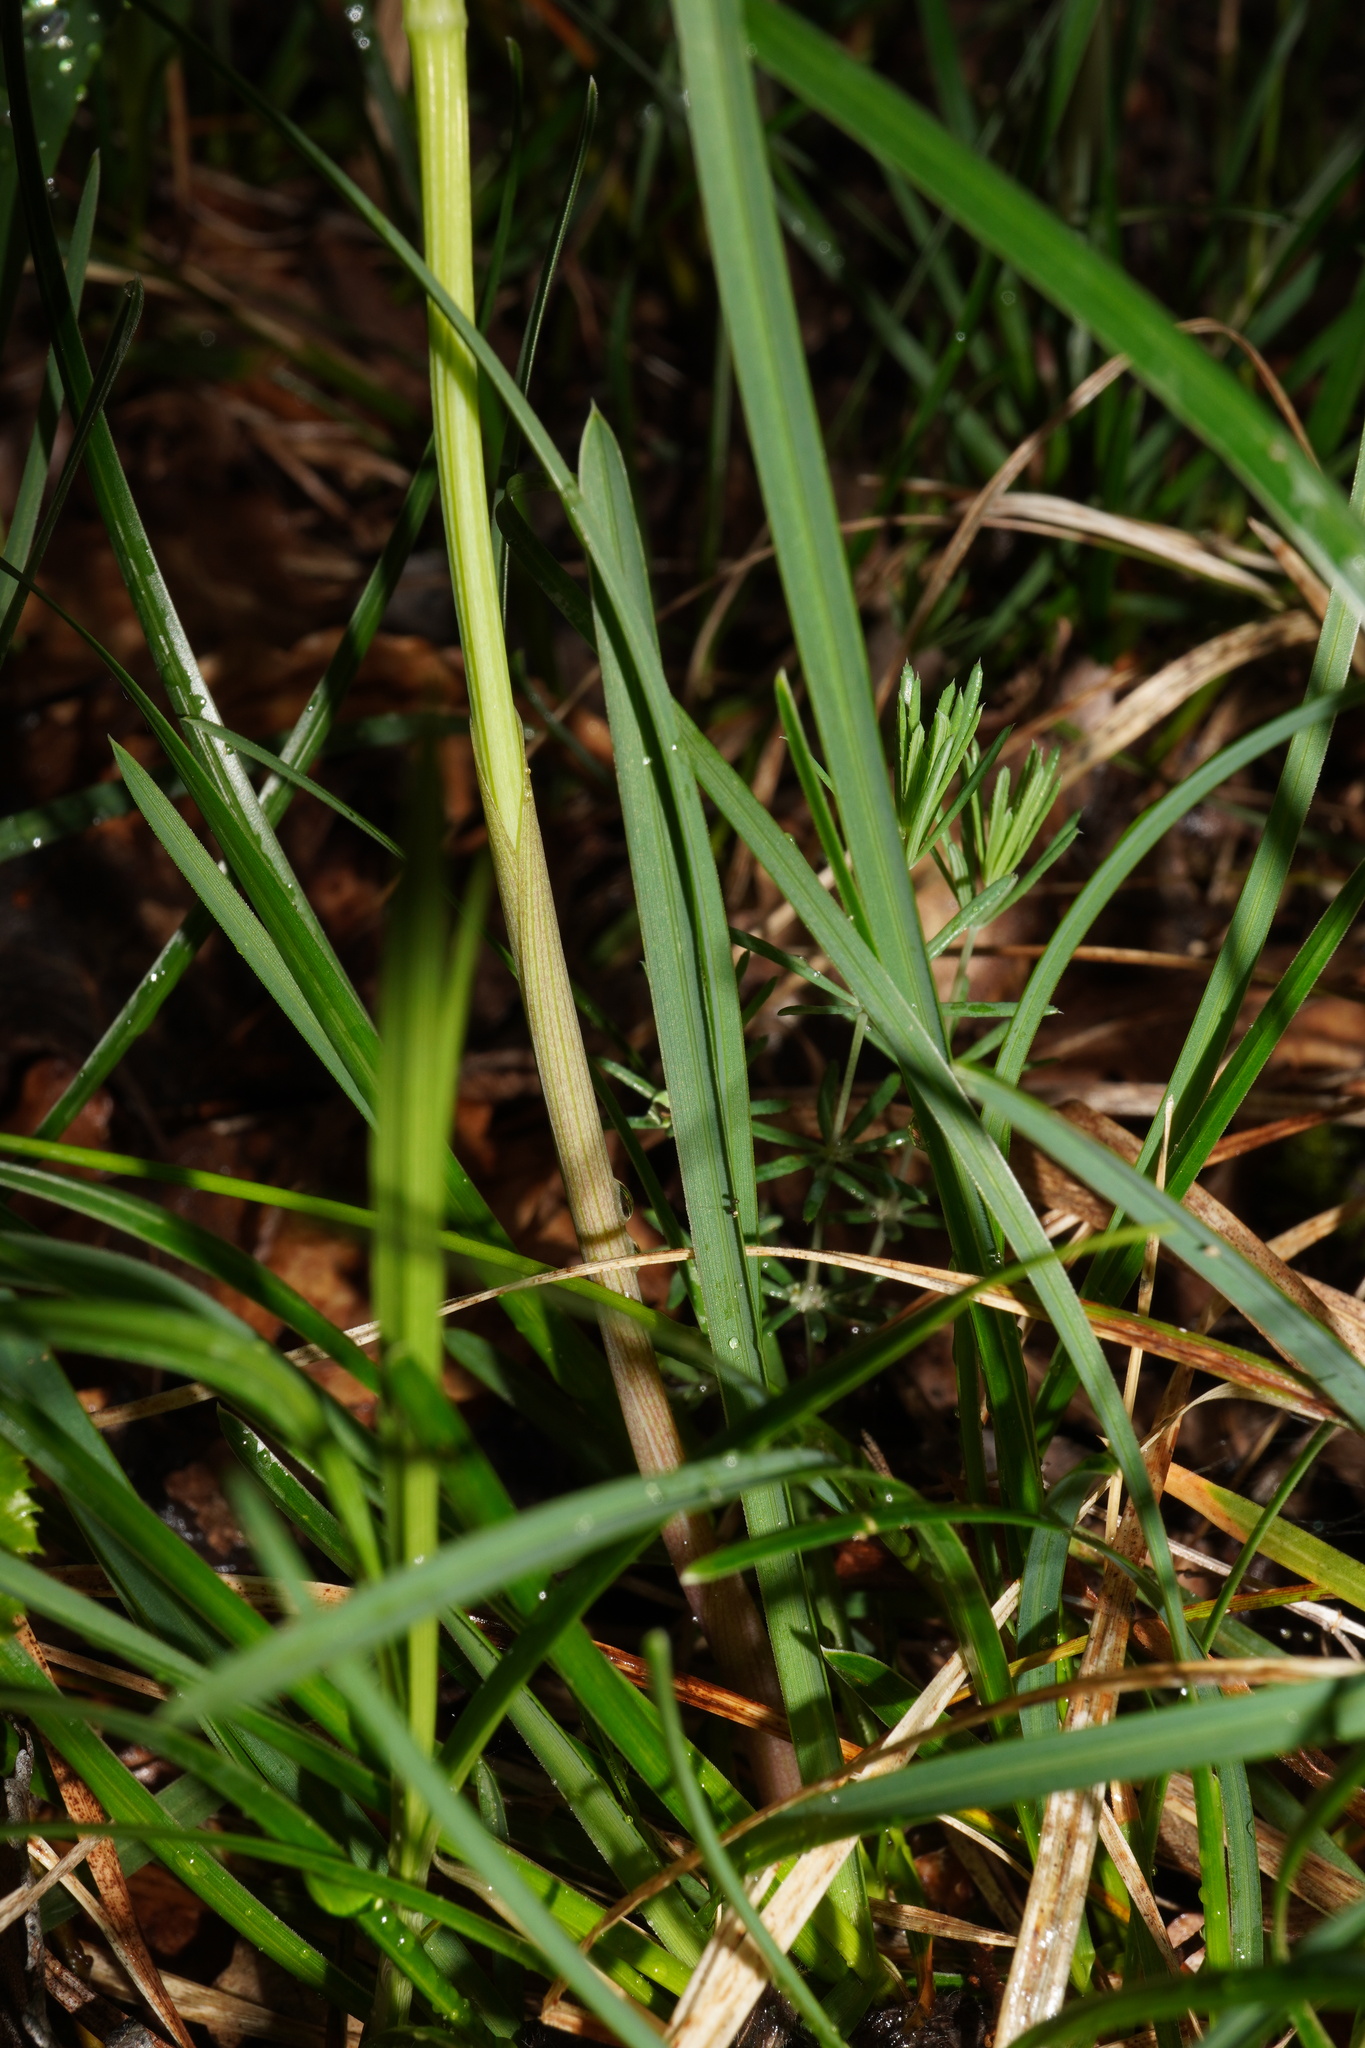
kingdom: Plantae
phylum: Tracheophyta
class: Liliopsida
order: Poales
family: Poaceae
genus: Sesleria
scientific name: Sesleria caerulea
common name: Blue moor-grass
